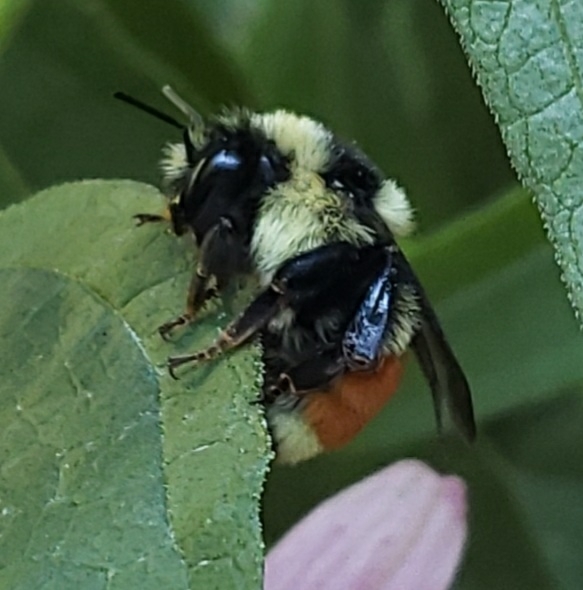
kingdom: Animalia
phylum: Arthropoda
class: Insecta
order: Hymenoptera
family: Apidae
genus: Bombus
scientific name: Bombus ternarius
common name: Tri-colored bumble bee
